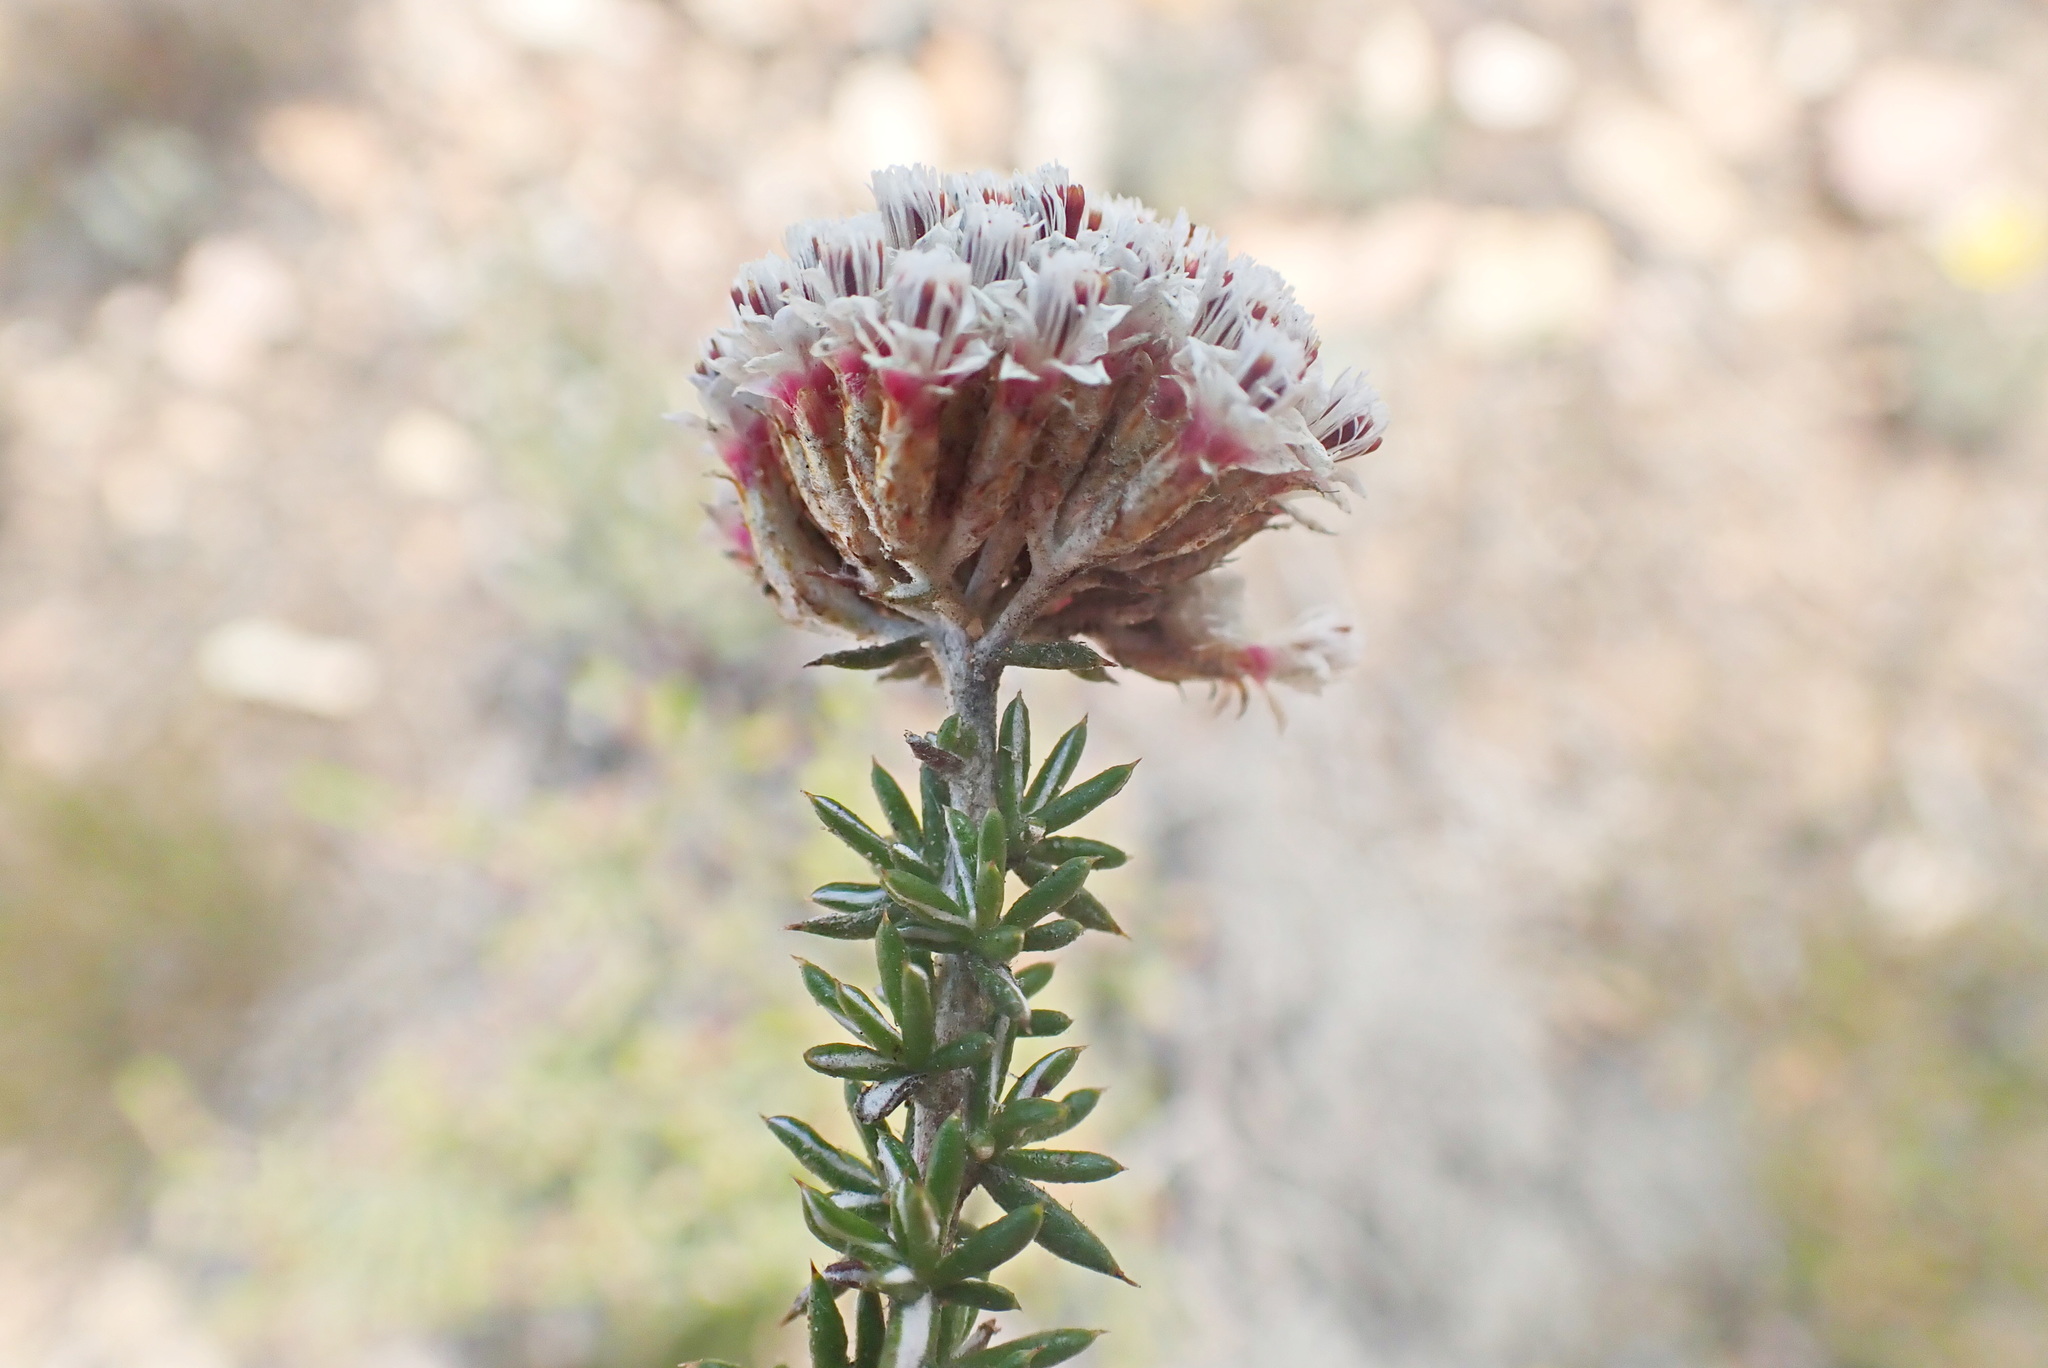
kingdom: Plantae
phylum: Tracheophyta
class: Magnoliopsida
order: Asterales
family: Asteraceae
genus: Metalasia
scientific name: Metalasia massonii
